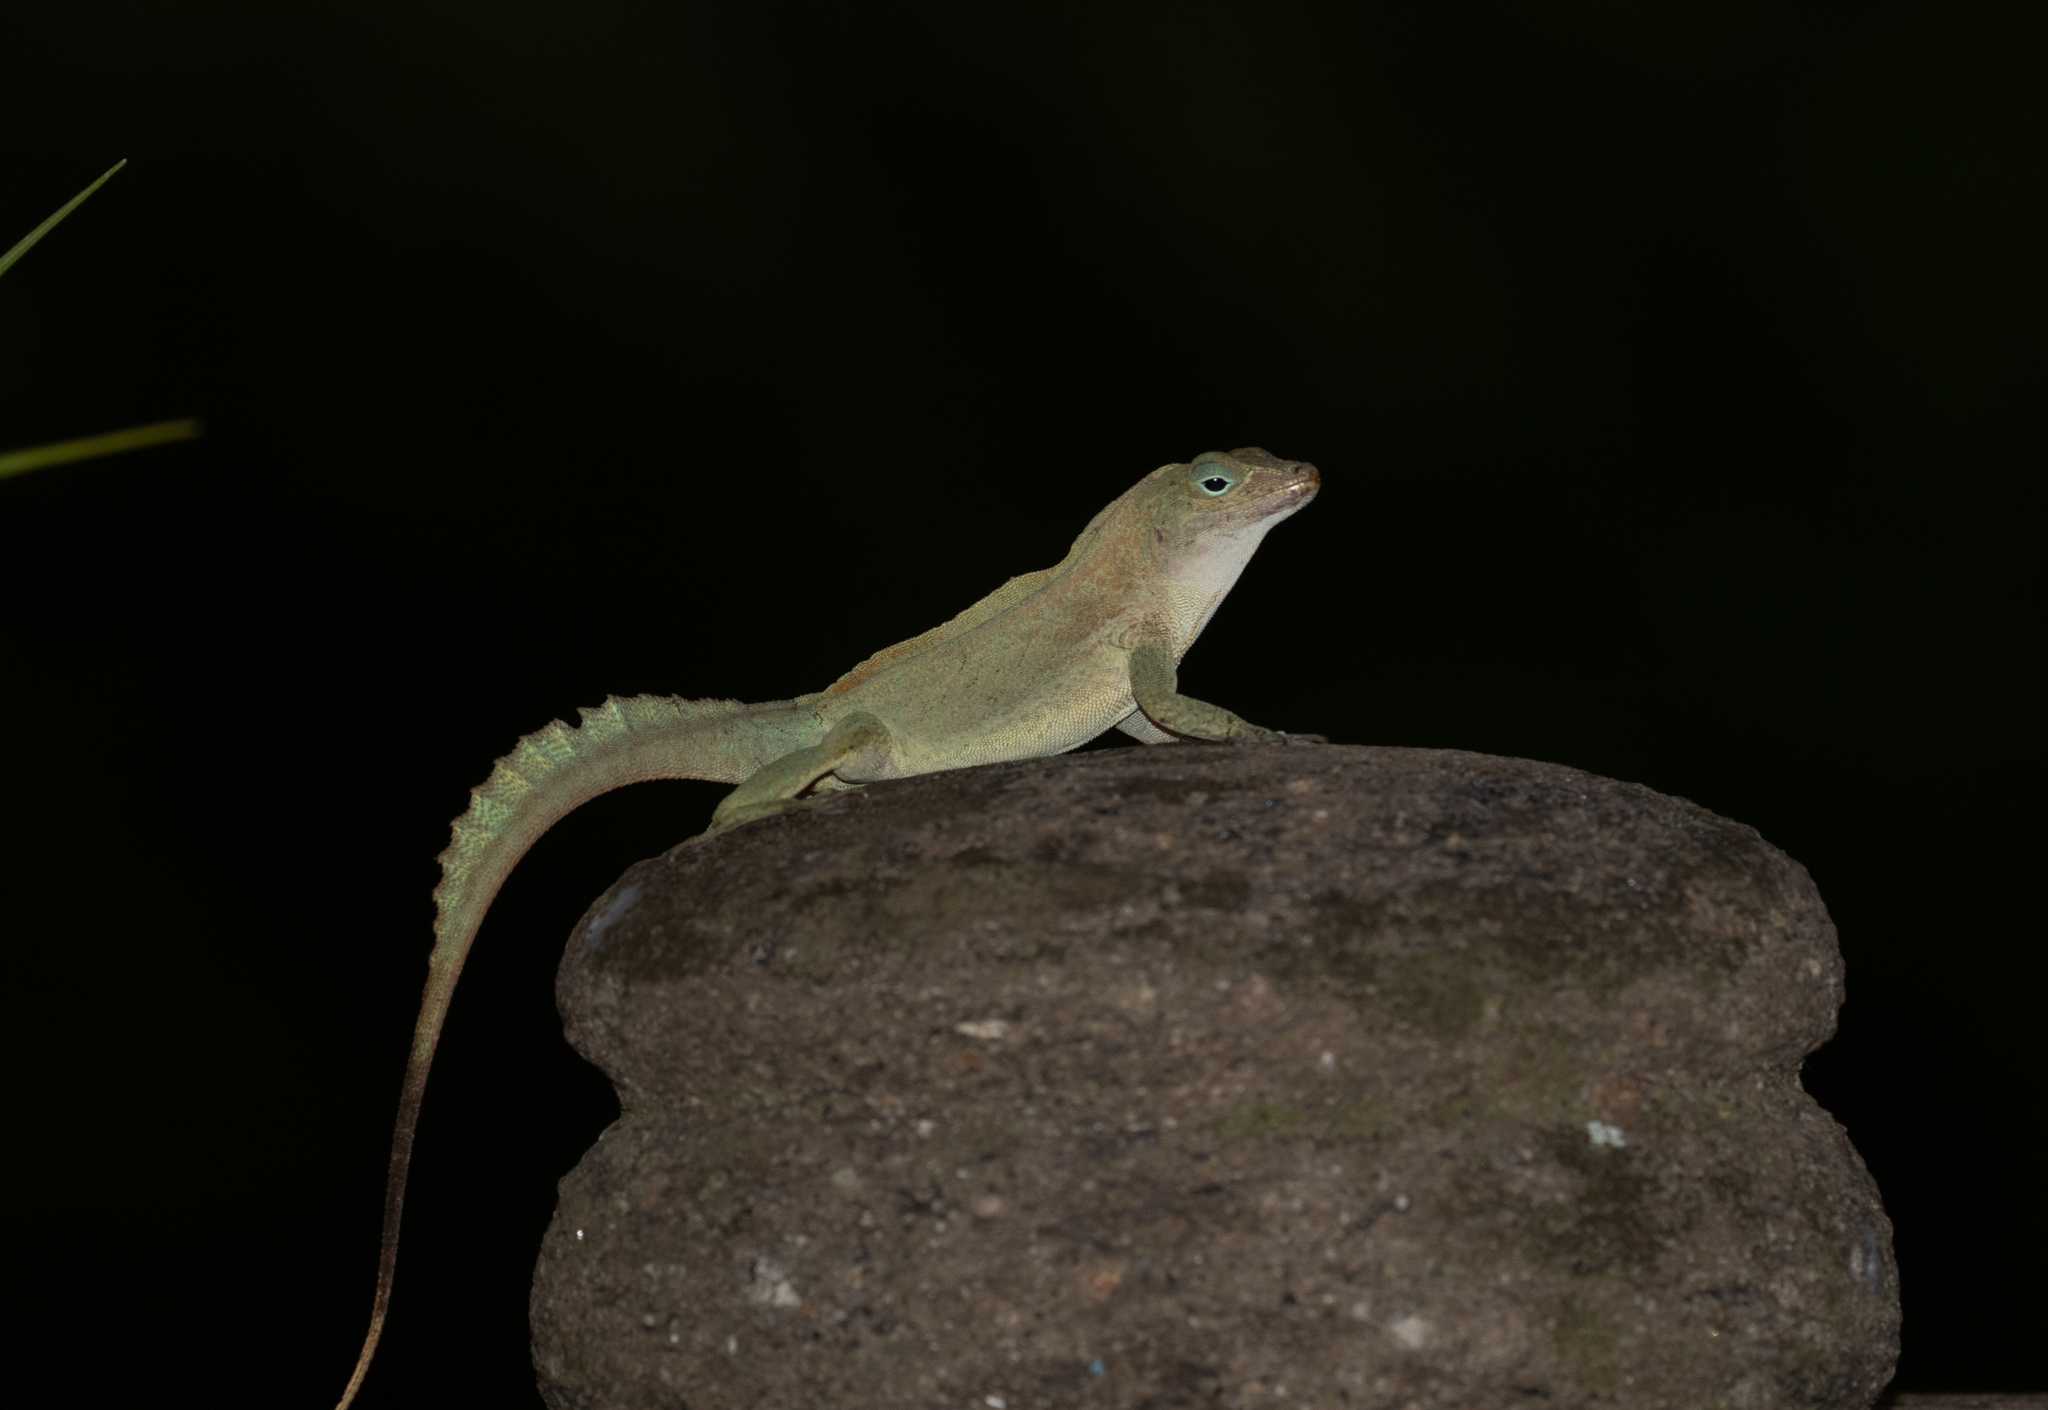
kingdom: Animalia
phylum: Chordata
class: Squamata
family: Dactyloidae
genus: Anolis
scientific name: Anolis cristatellus
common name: Crested anole
